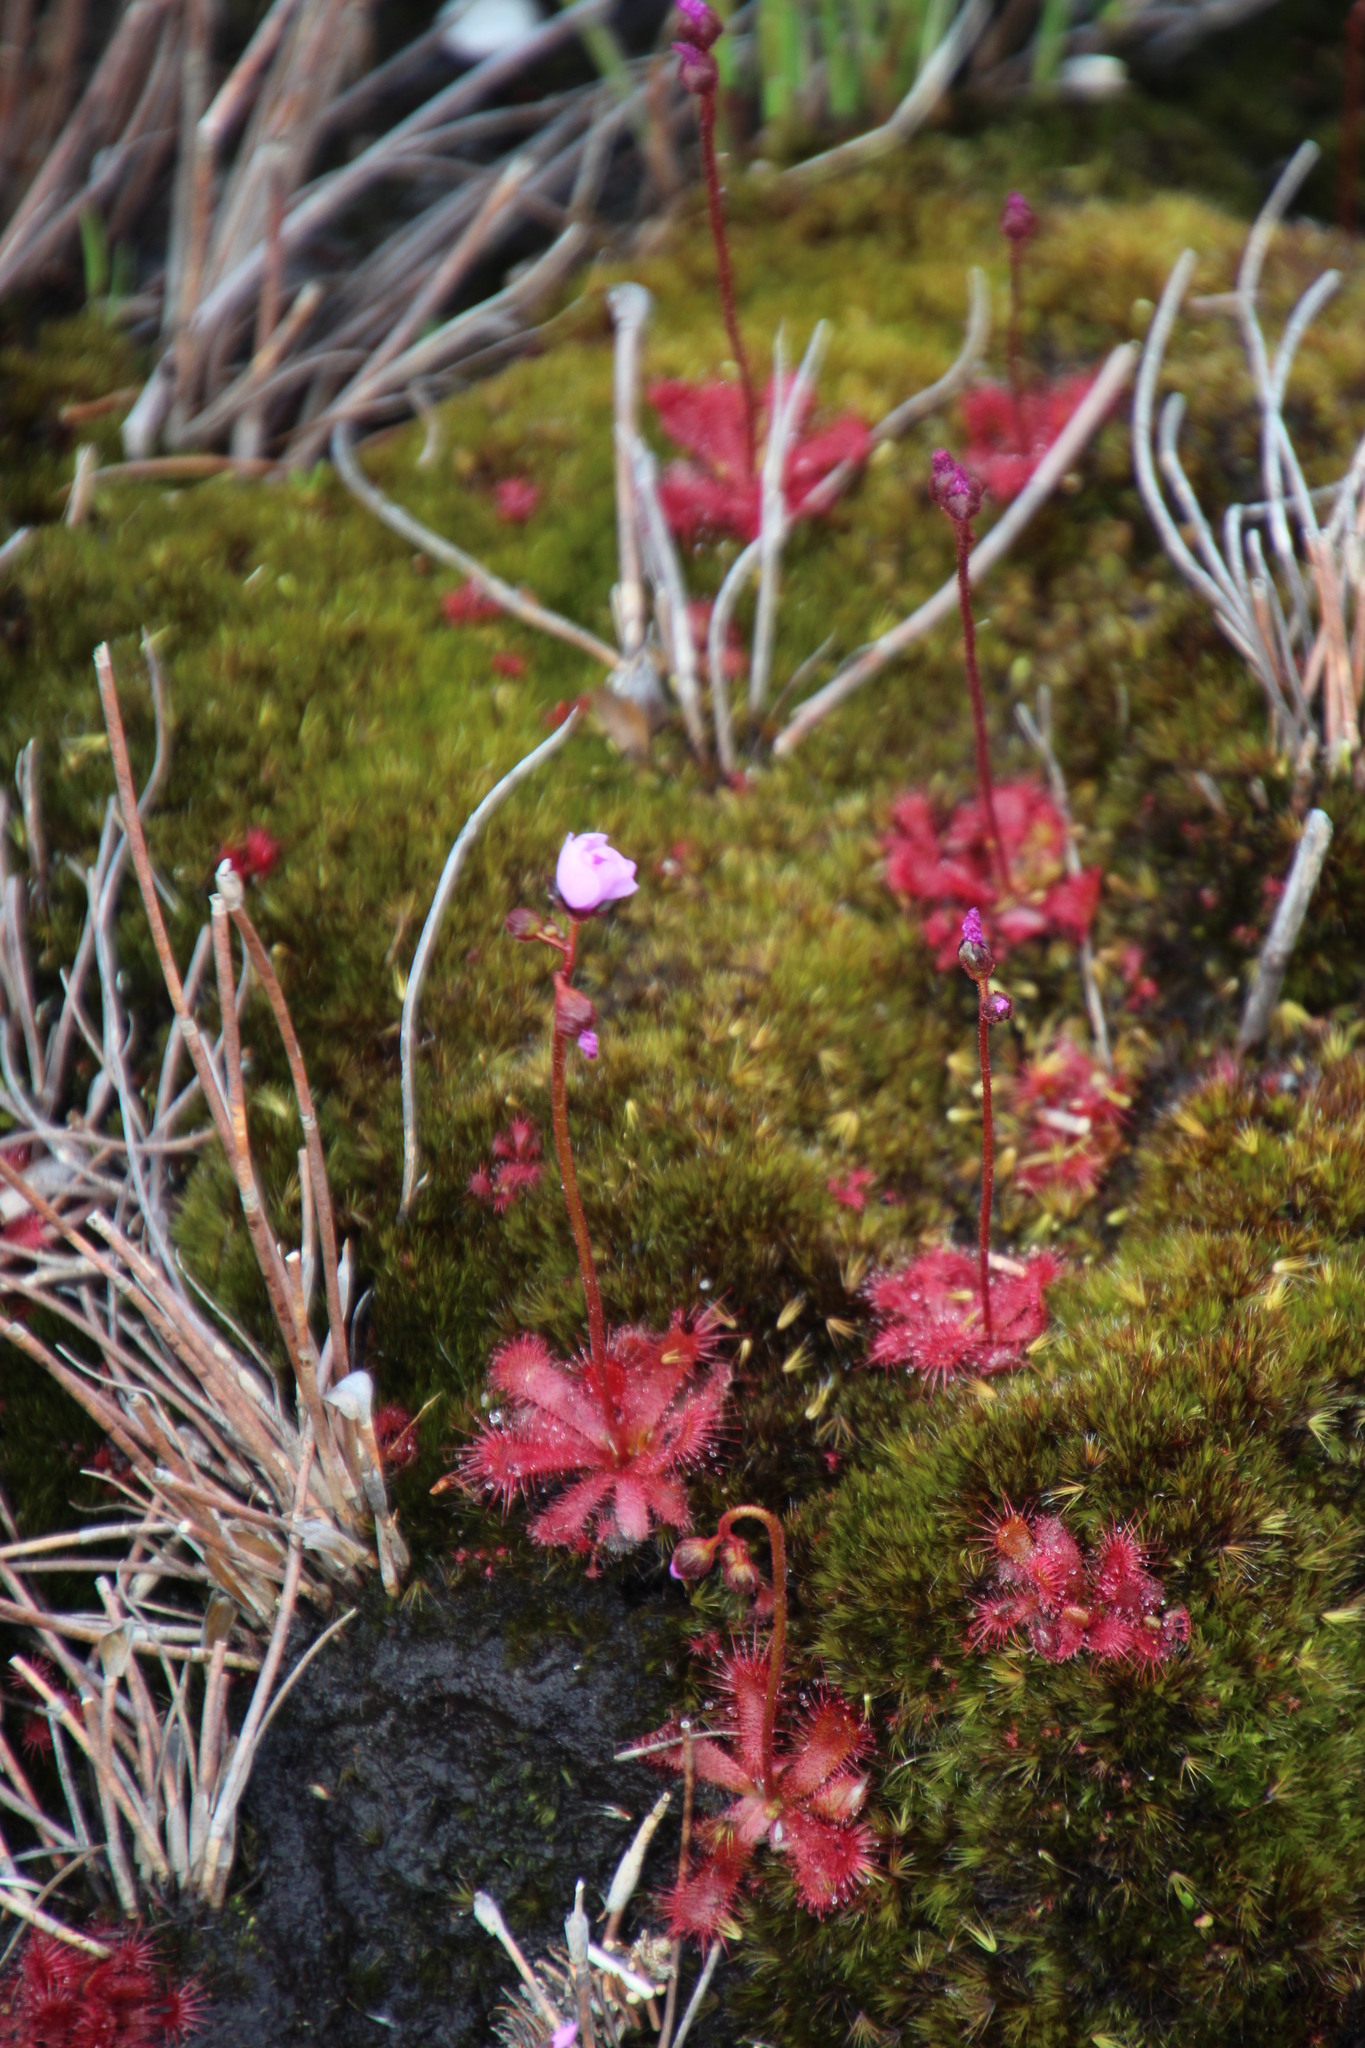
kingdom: Plantae
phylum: Tracheophyta
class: Magnoliopsida
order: Caryophyllales
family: Droseraceae
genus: Drosera
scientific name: Drosera trinervia
